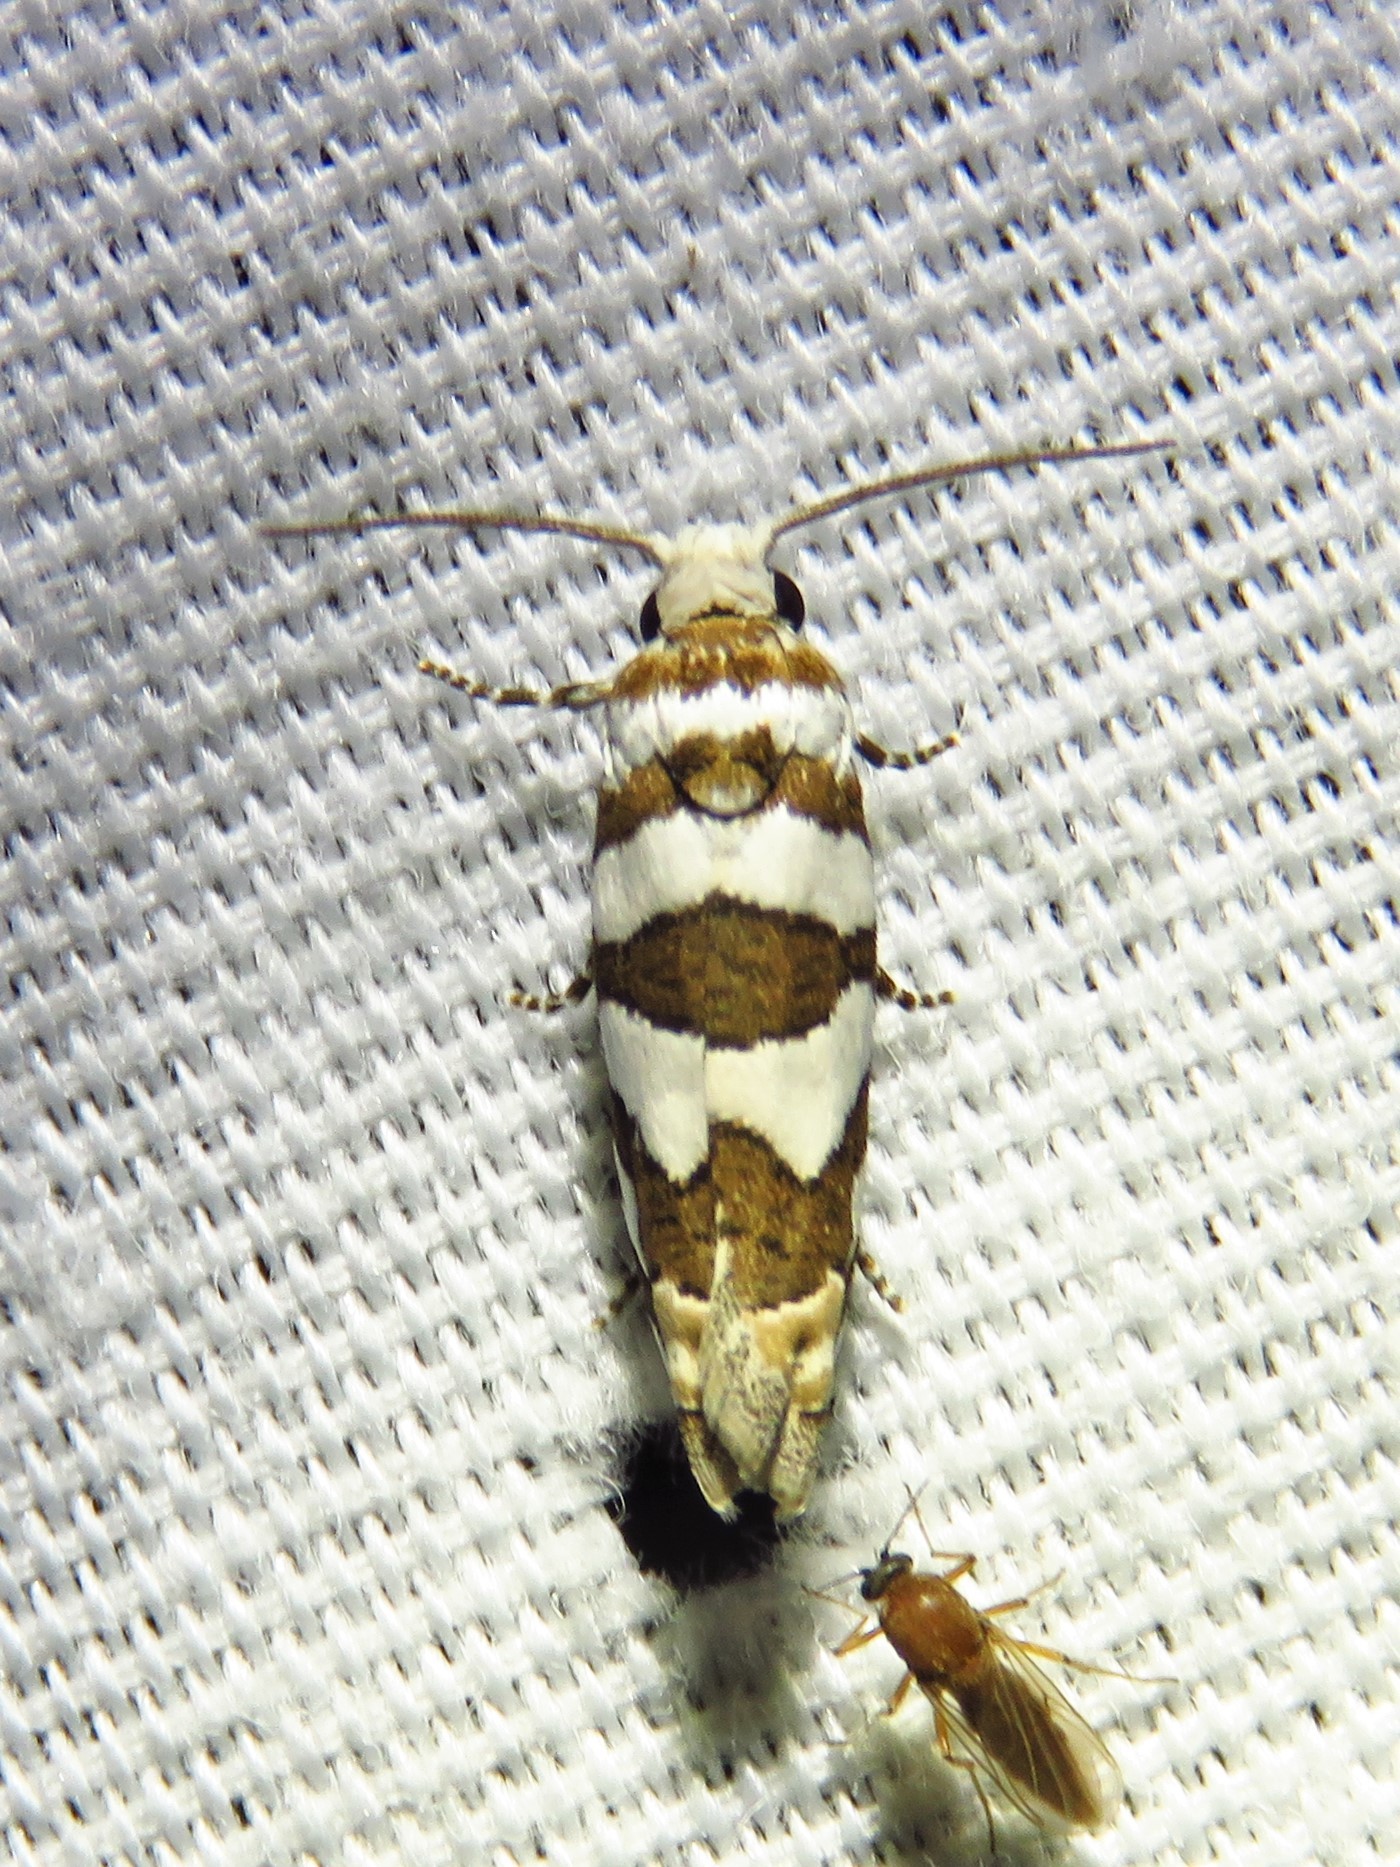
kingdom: Animalia
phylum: Arthropoda
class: Insecta
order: Lepidoptera
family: Tortricidae
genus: Pelochrista
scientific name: Pelochrista robinsonana
